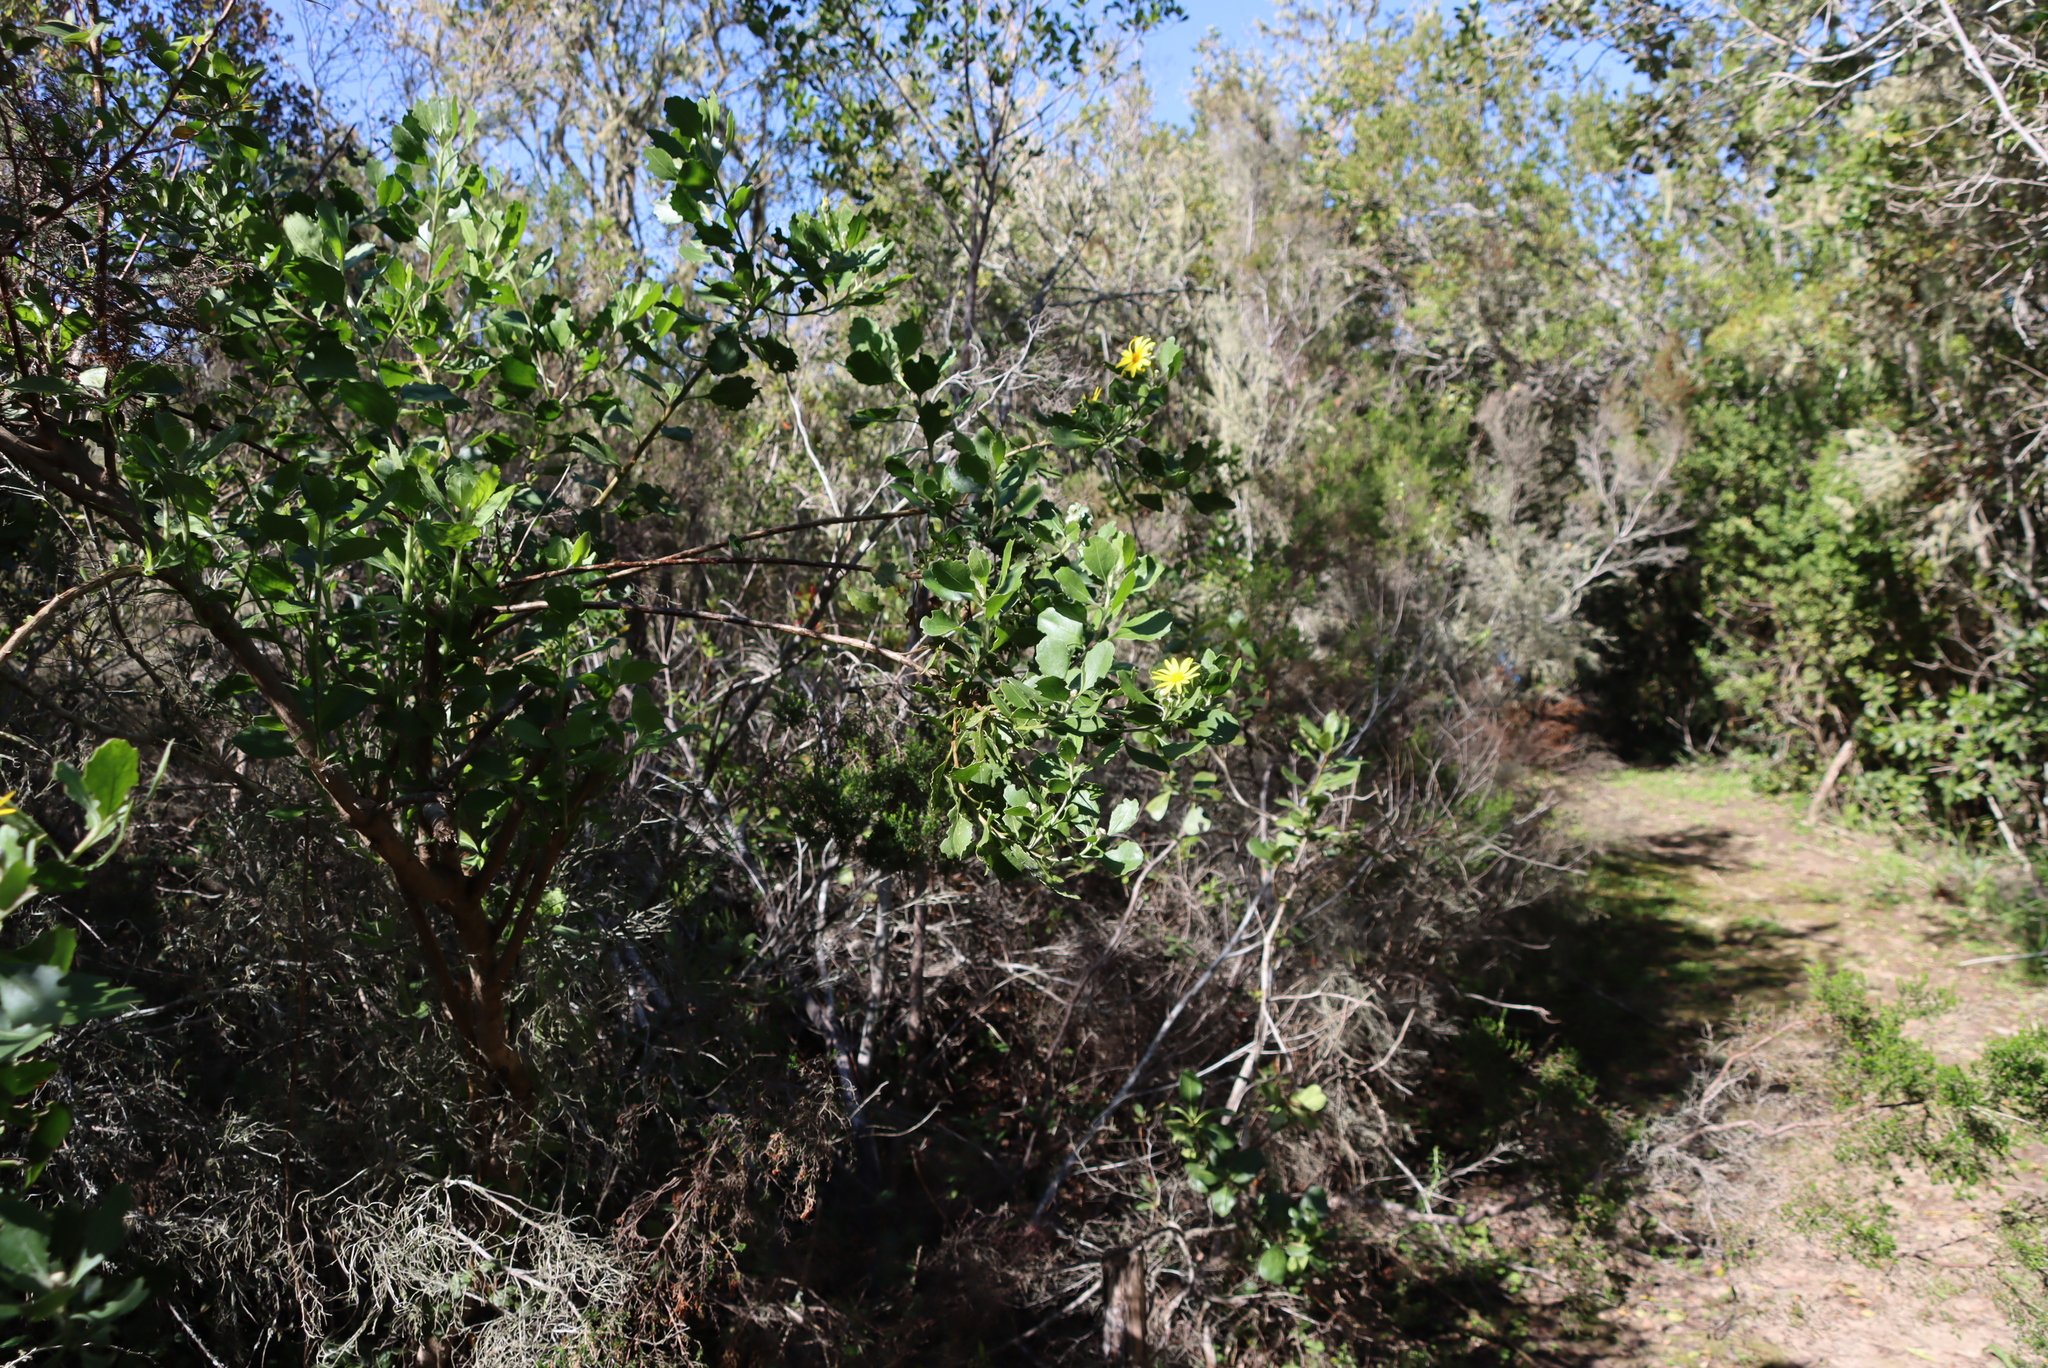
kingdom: Plantae
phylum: Tracheophyta
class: Magnoliopsida
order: Asterales
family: Asteraceae
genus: Osteospermum
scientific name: Osteospermum moniliferum
